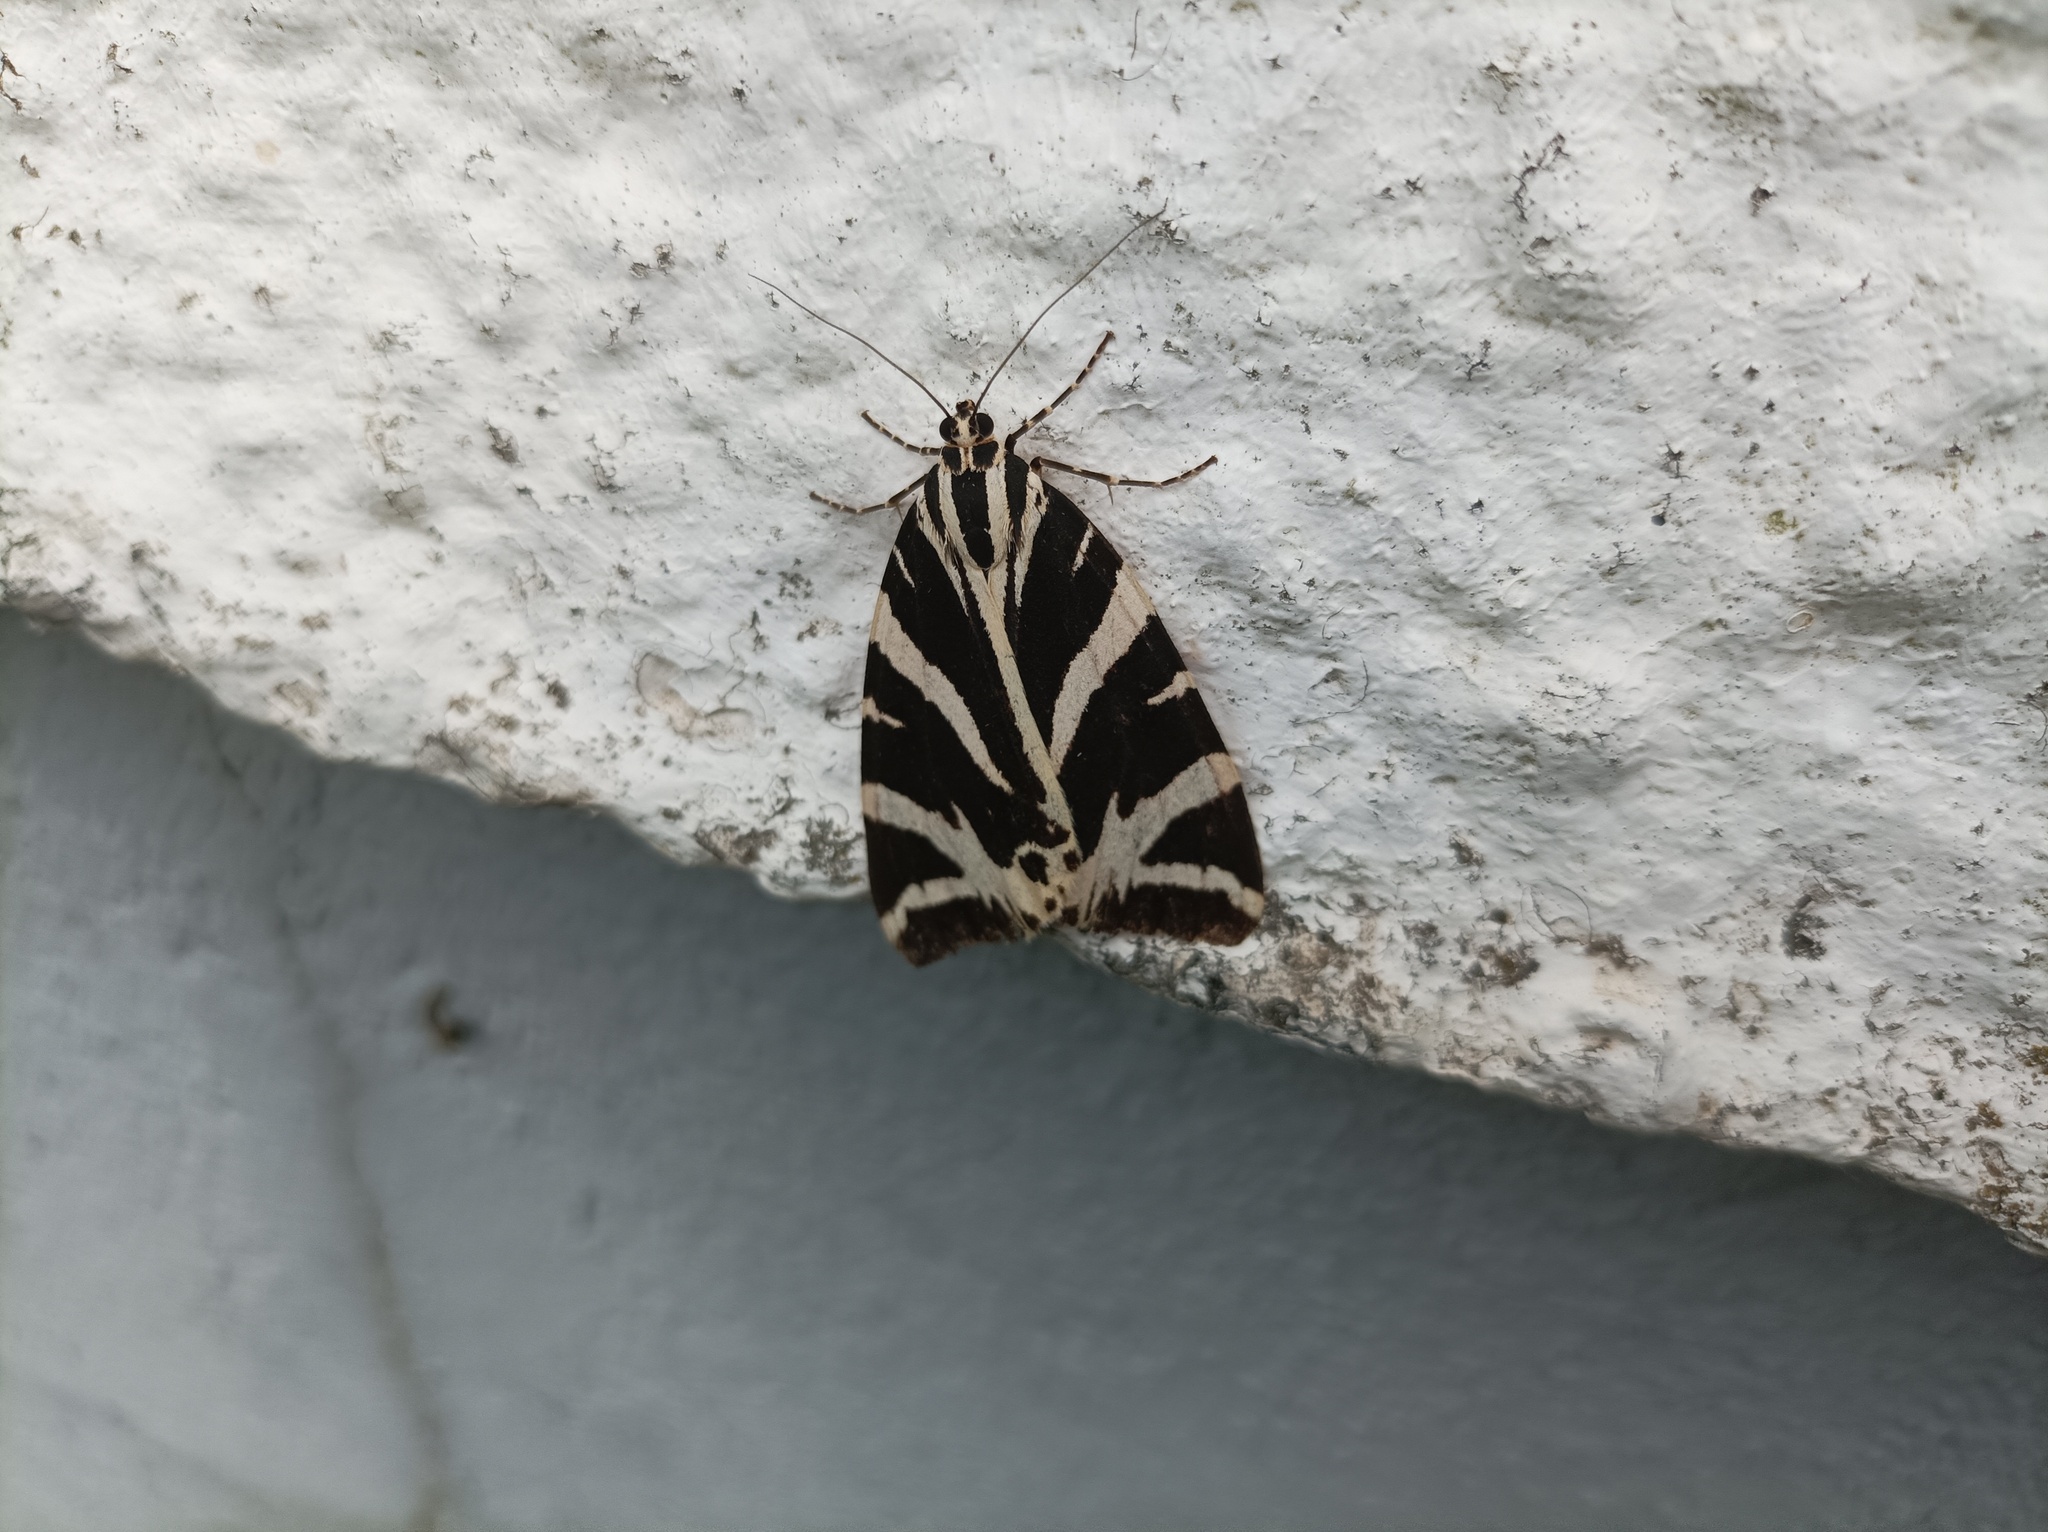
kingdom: Animalia
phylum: Arthropoda
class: Insecta
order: Lepidoptera
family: Erebidae
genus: Euplagia
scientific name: Euplagia quadripunctaria
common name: Jersey tiger
